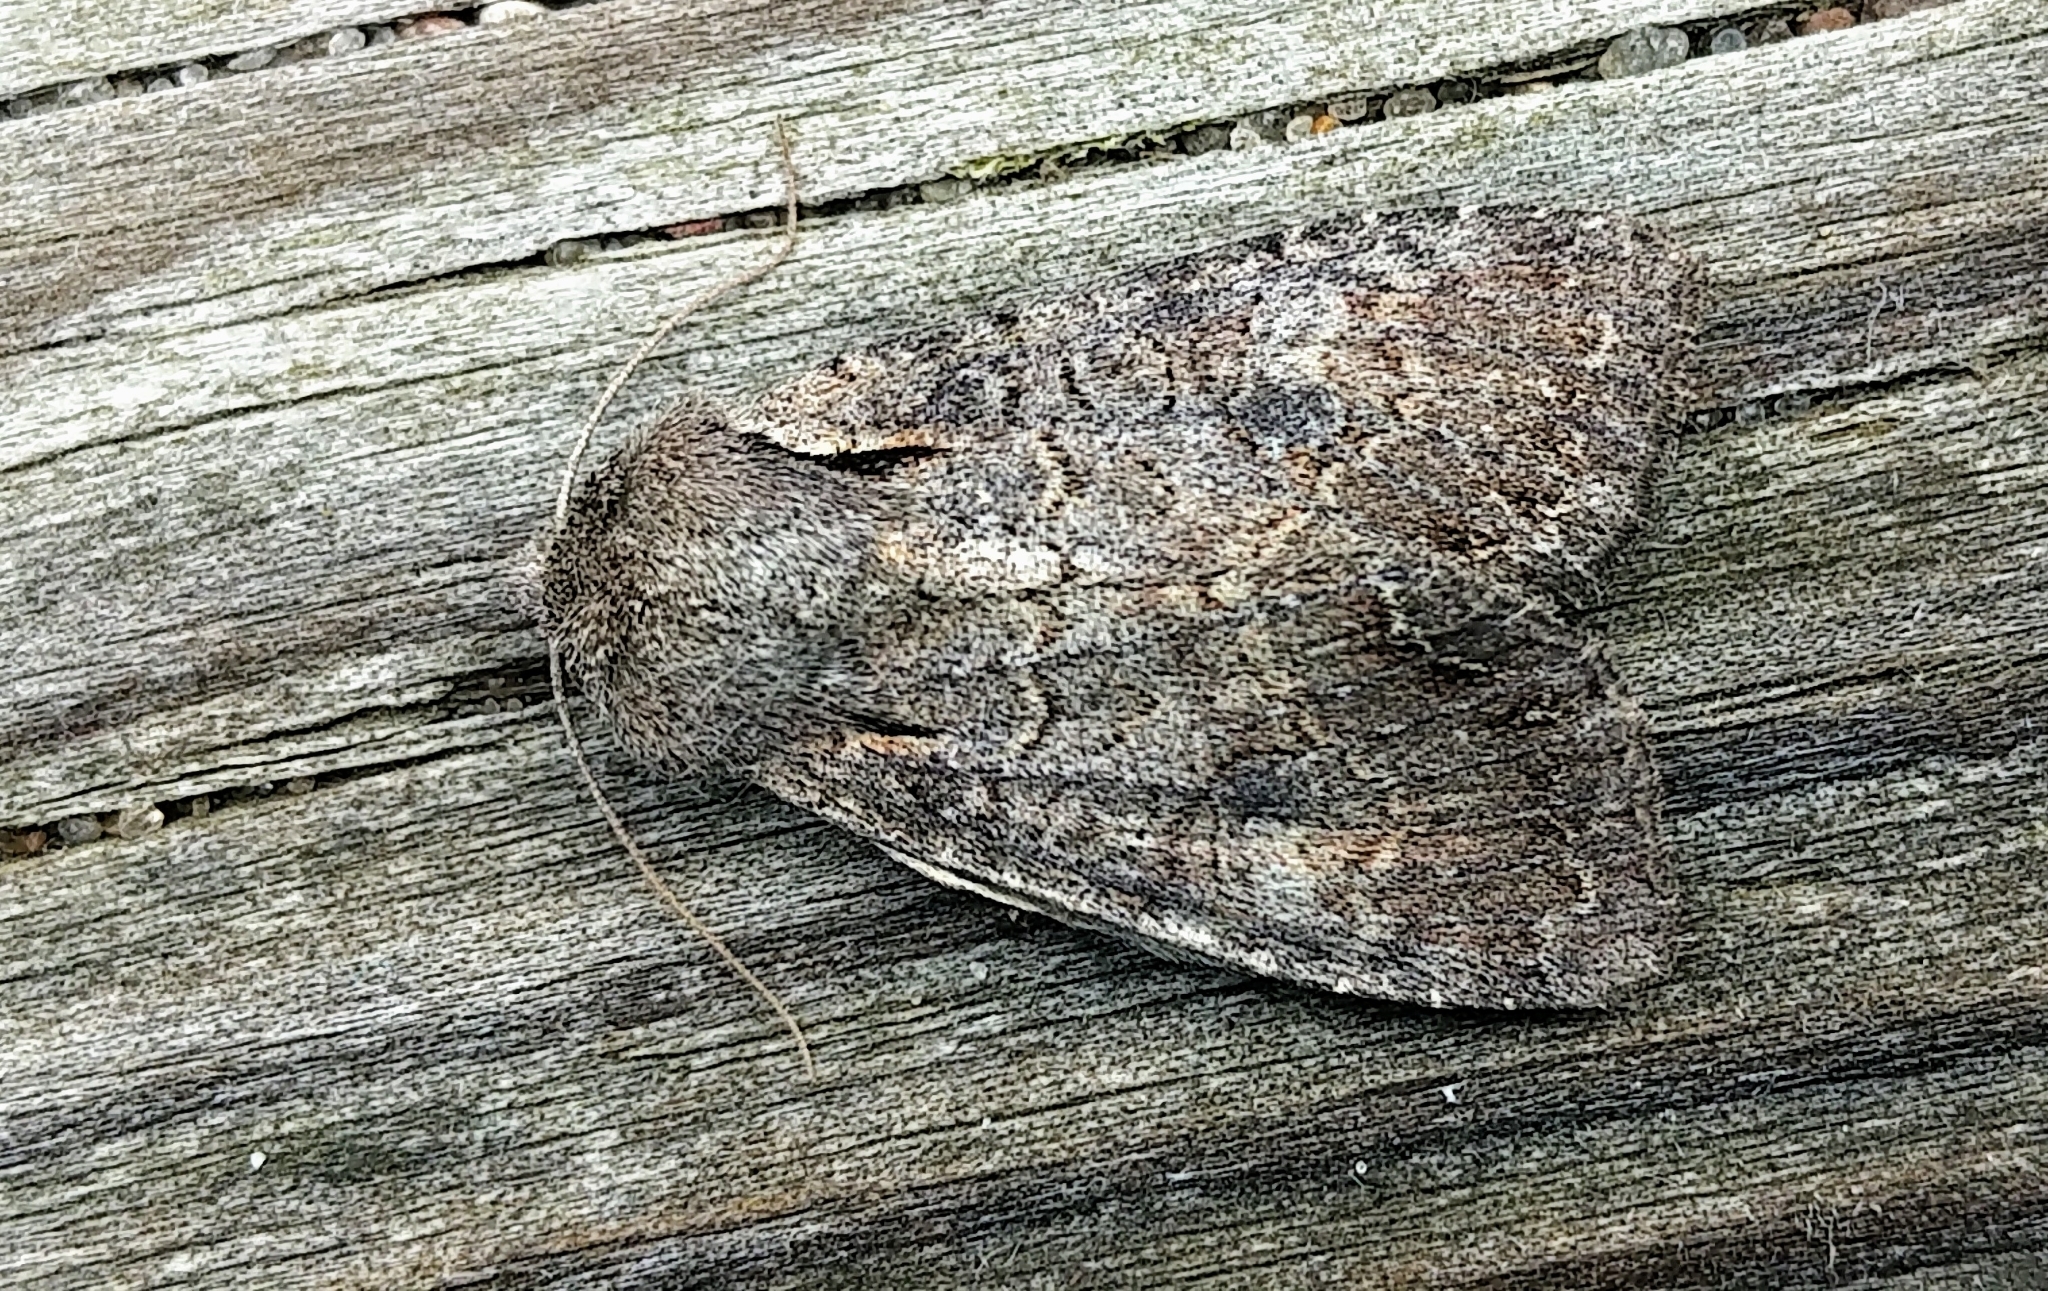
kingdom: Animalia
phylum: Arthropoda
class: Insecta
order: Lepidoptera
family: Noctuidae
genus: Lacanobia
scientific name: Lacanobia radix
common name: Garden arches moth
